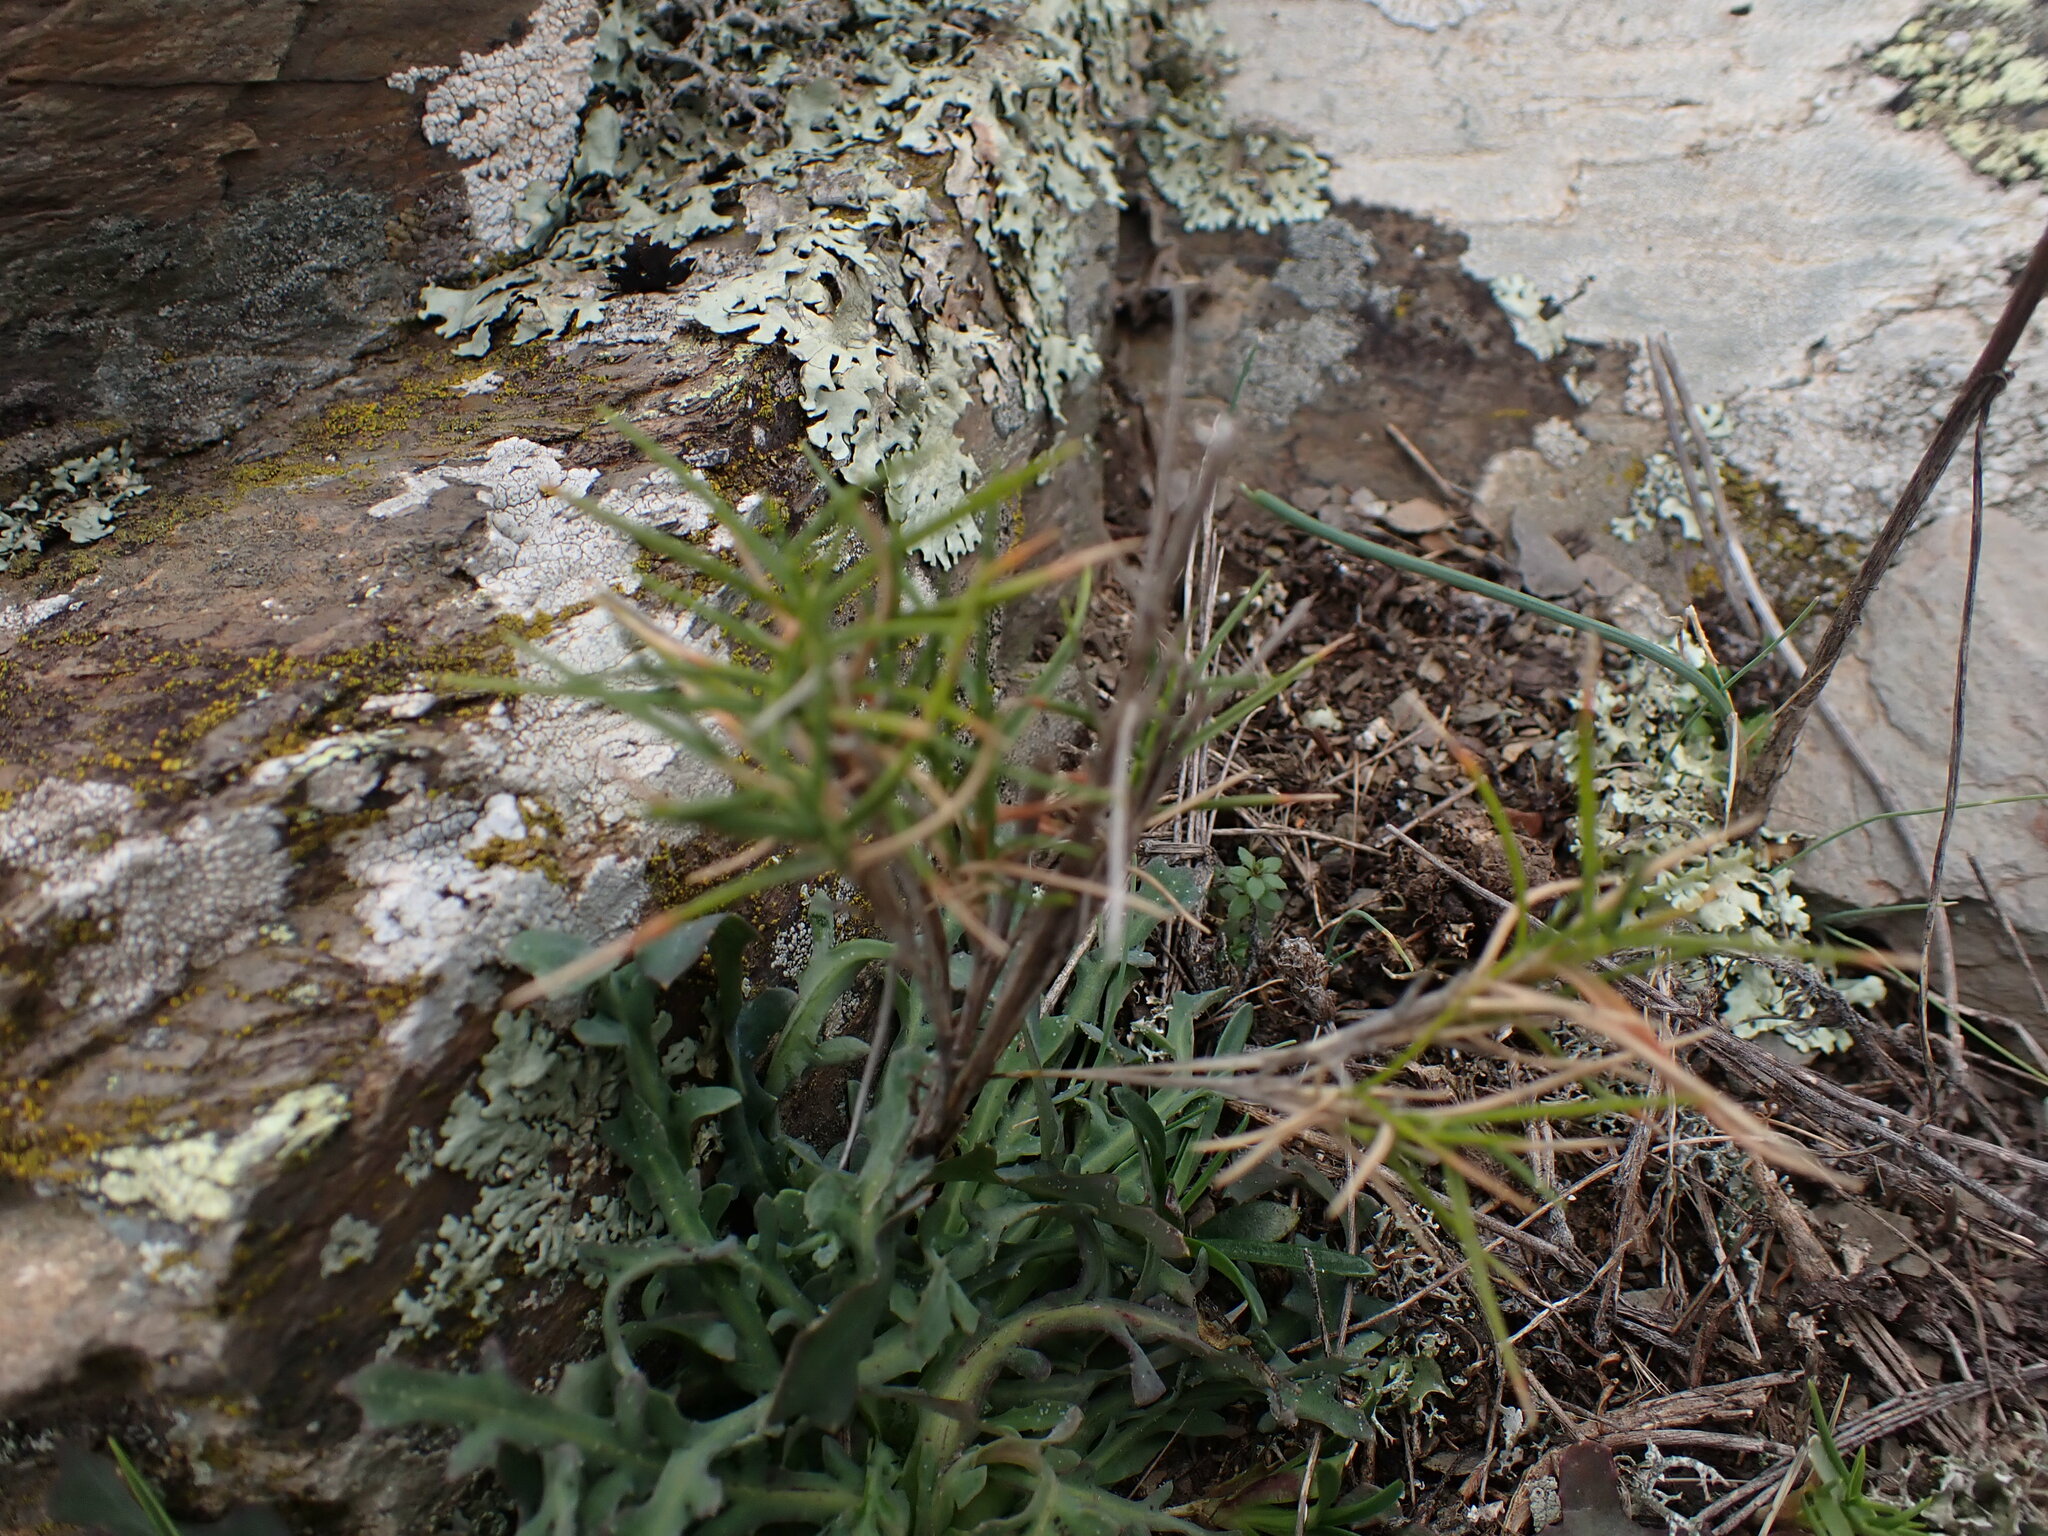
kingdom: Plantae
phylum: Tracheophyta
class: Liliopsida
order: Poales
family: Poaceae
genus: Brachypodium
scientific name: Brachypodium retusum
